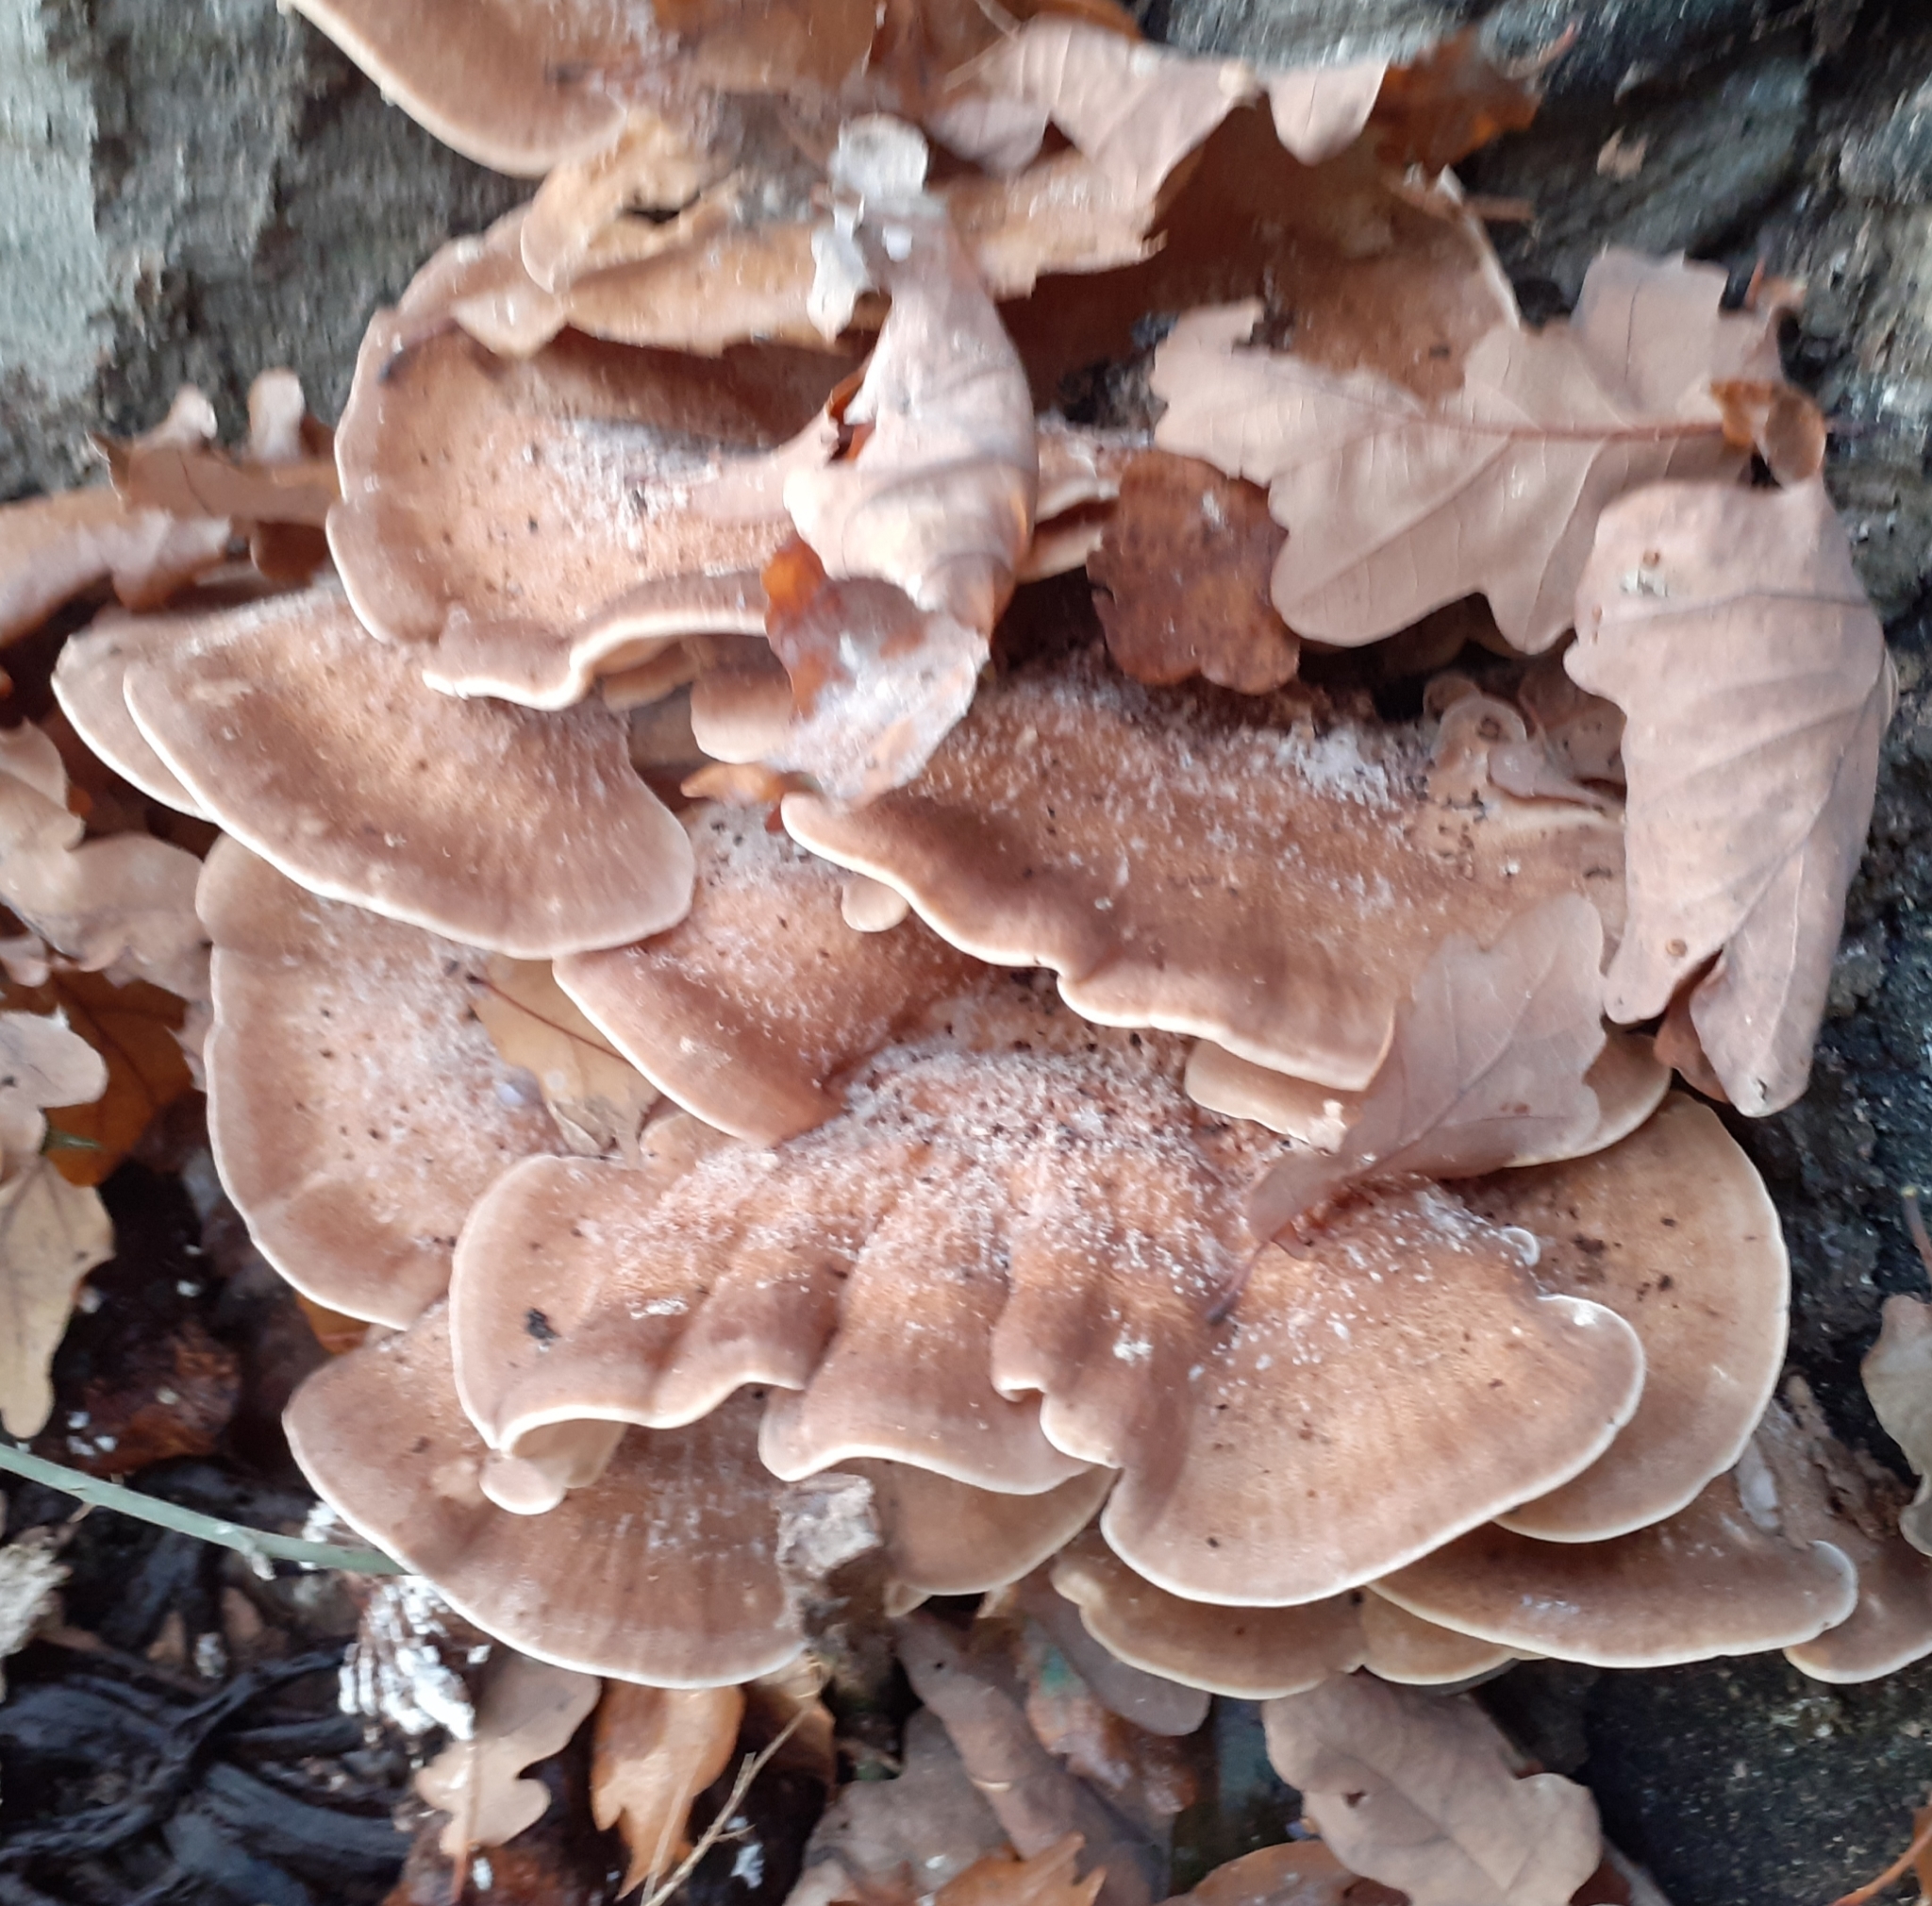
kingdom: Fungi
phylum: Basidiomycota
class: Agaricomycetes
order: Polyporales
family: Meripilaceae
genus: Meripilus
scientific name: Meripilus giganteus
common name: Giant polypore
